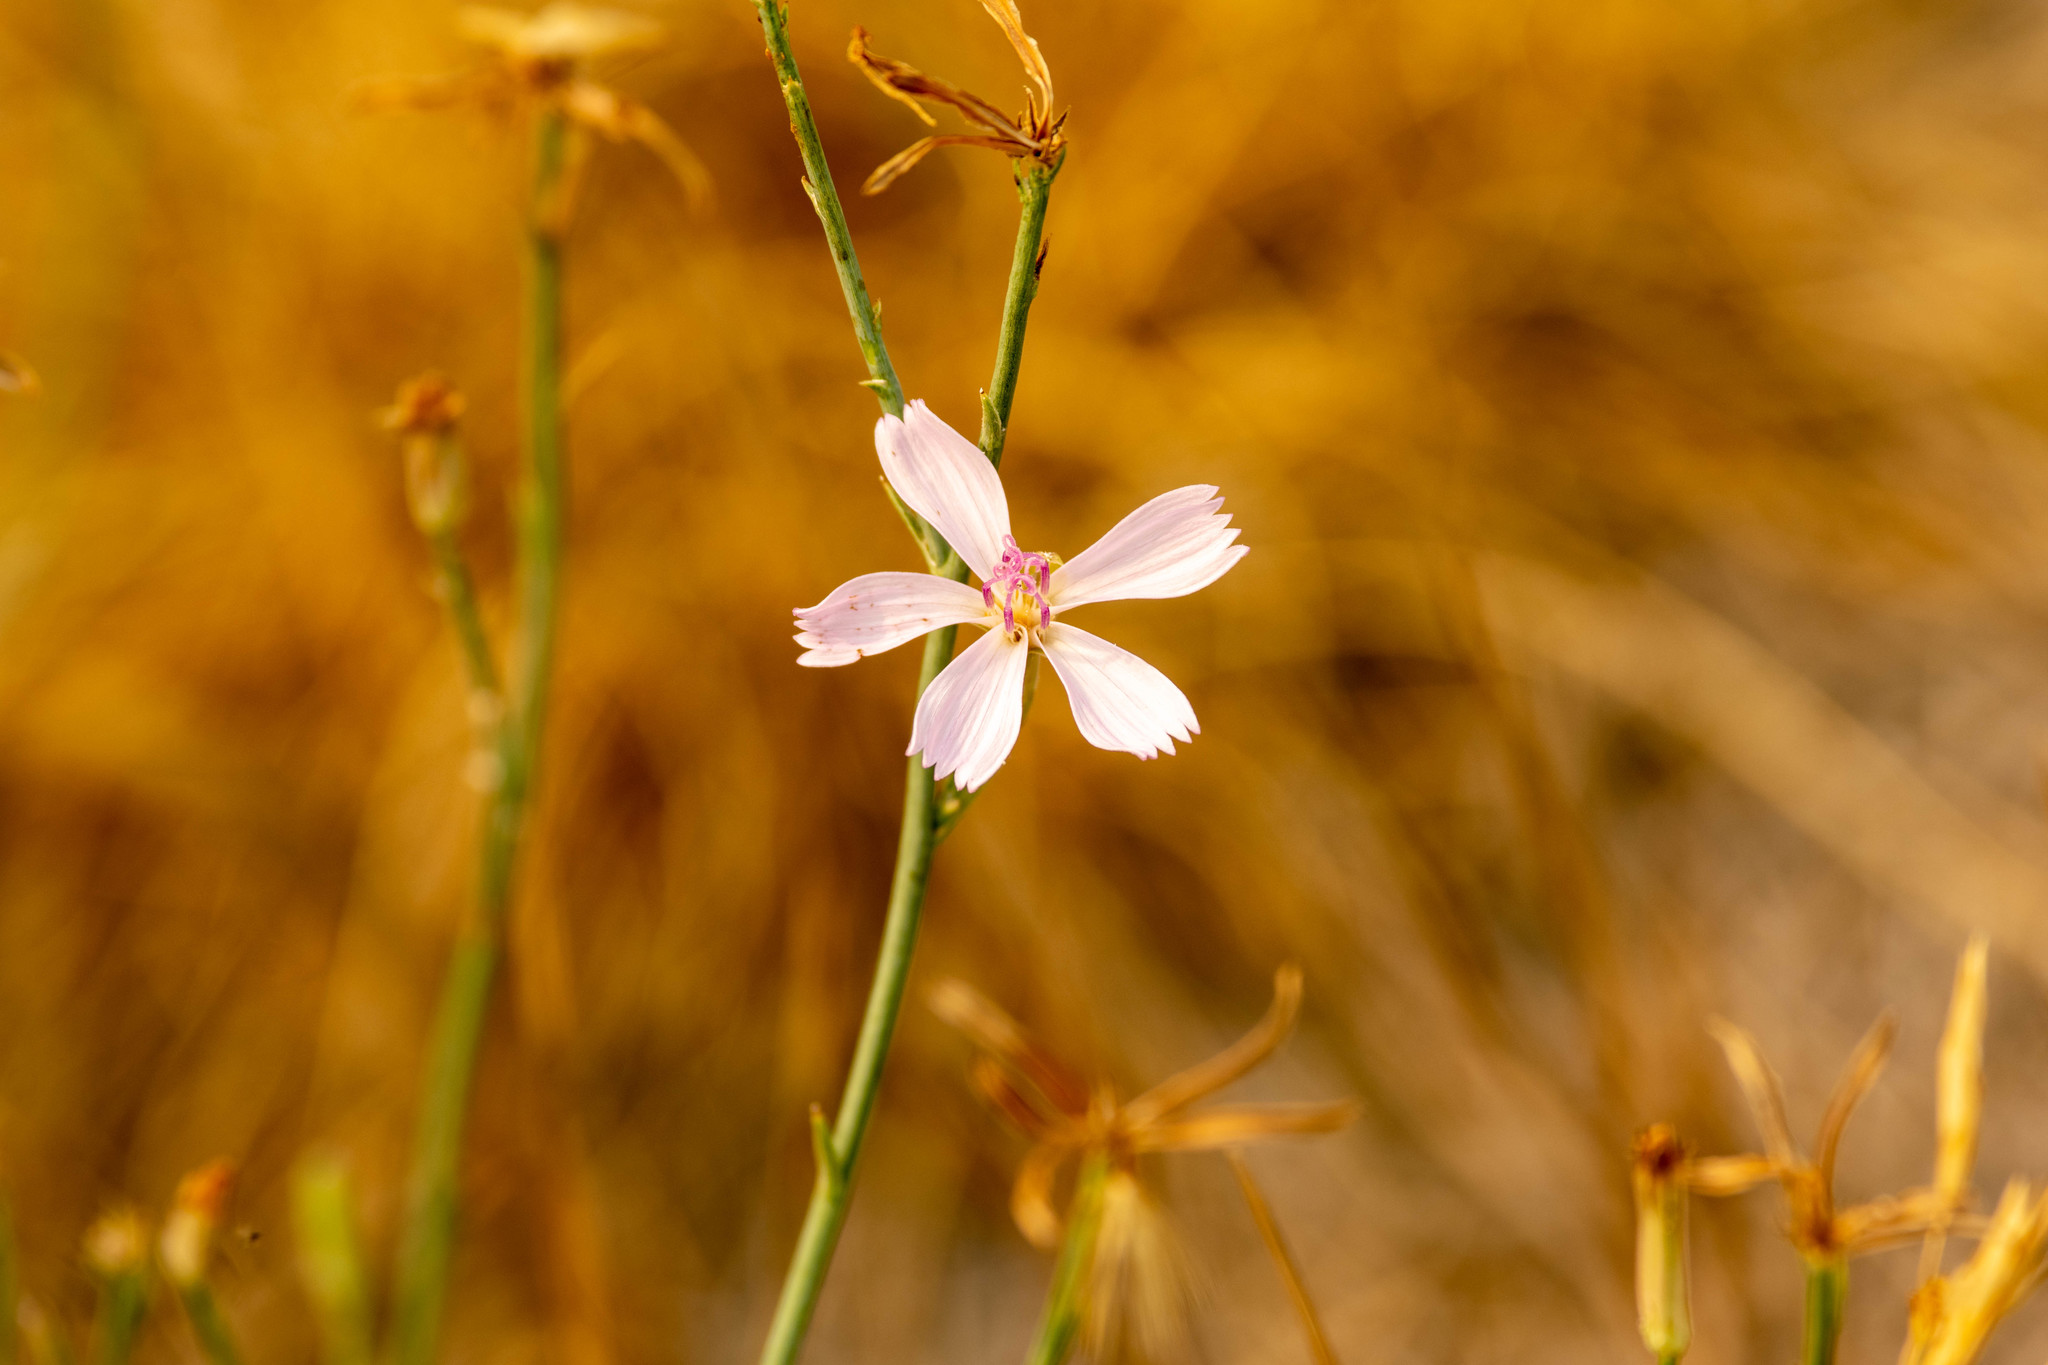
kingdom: Plantae
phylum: Tracheophyta
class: Magnoliopsida
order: Asterales
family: Asteraceae
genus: Lygodesmia
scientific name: Lygodesmia juncea
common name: Common skeletonweed
